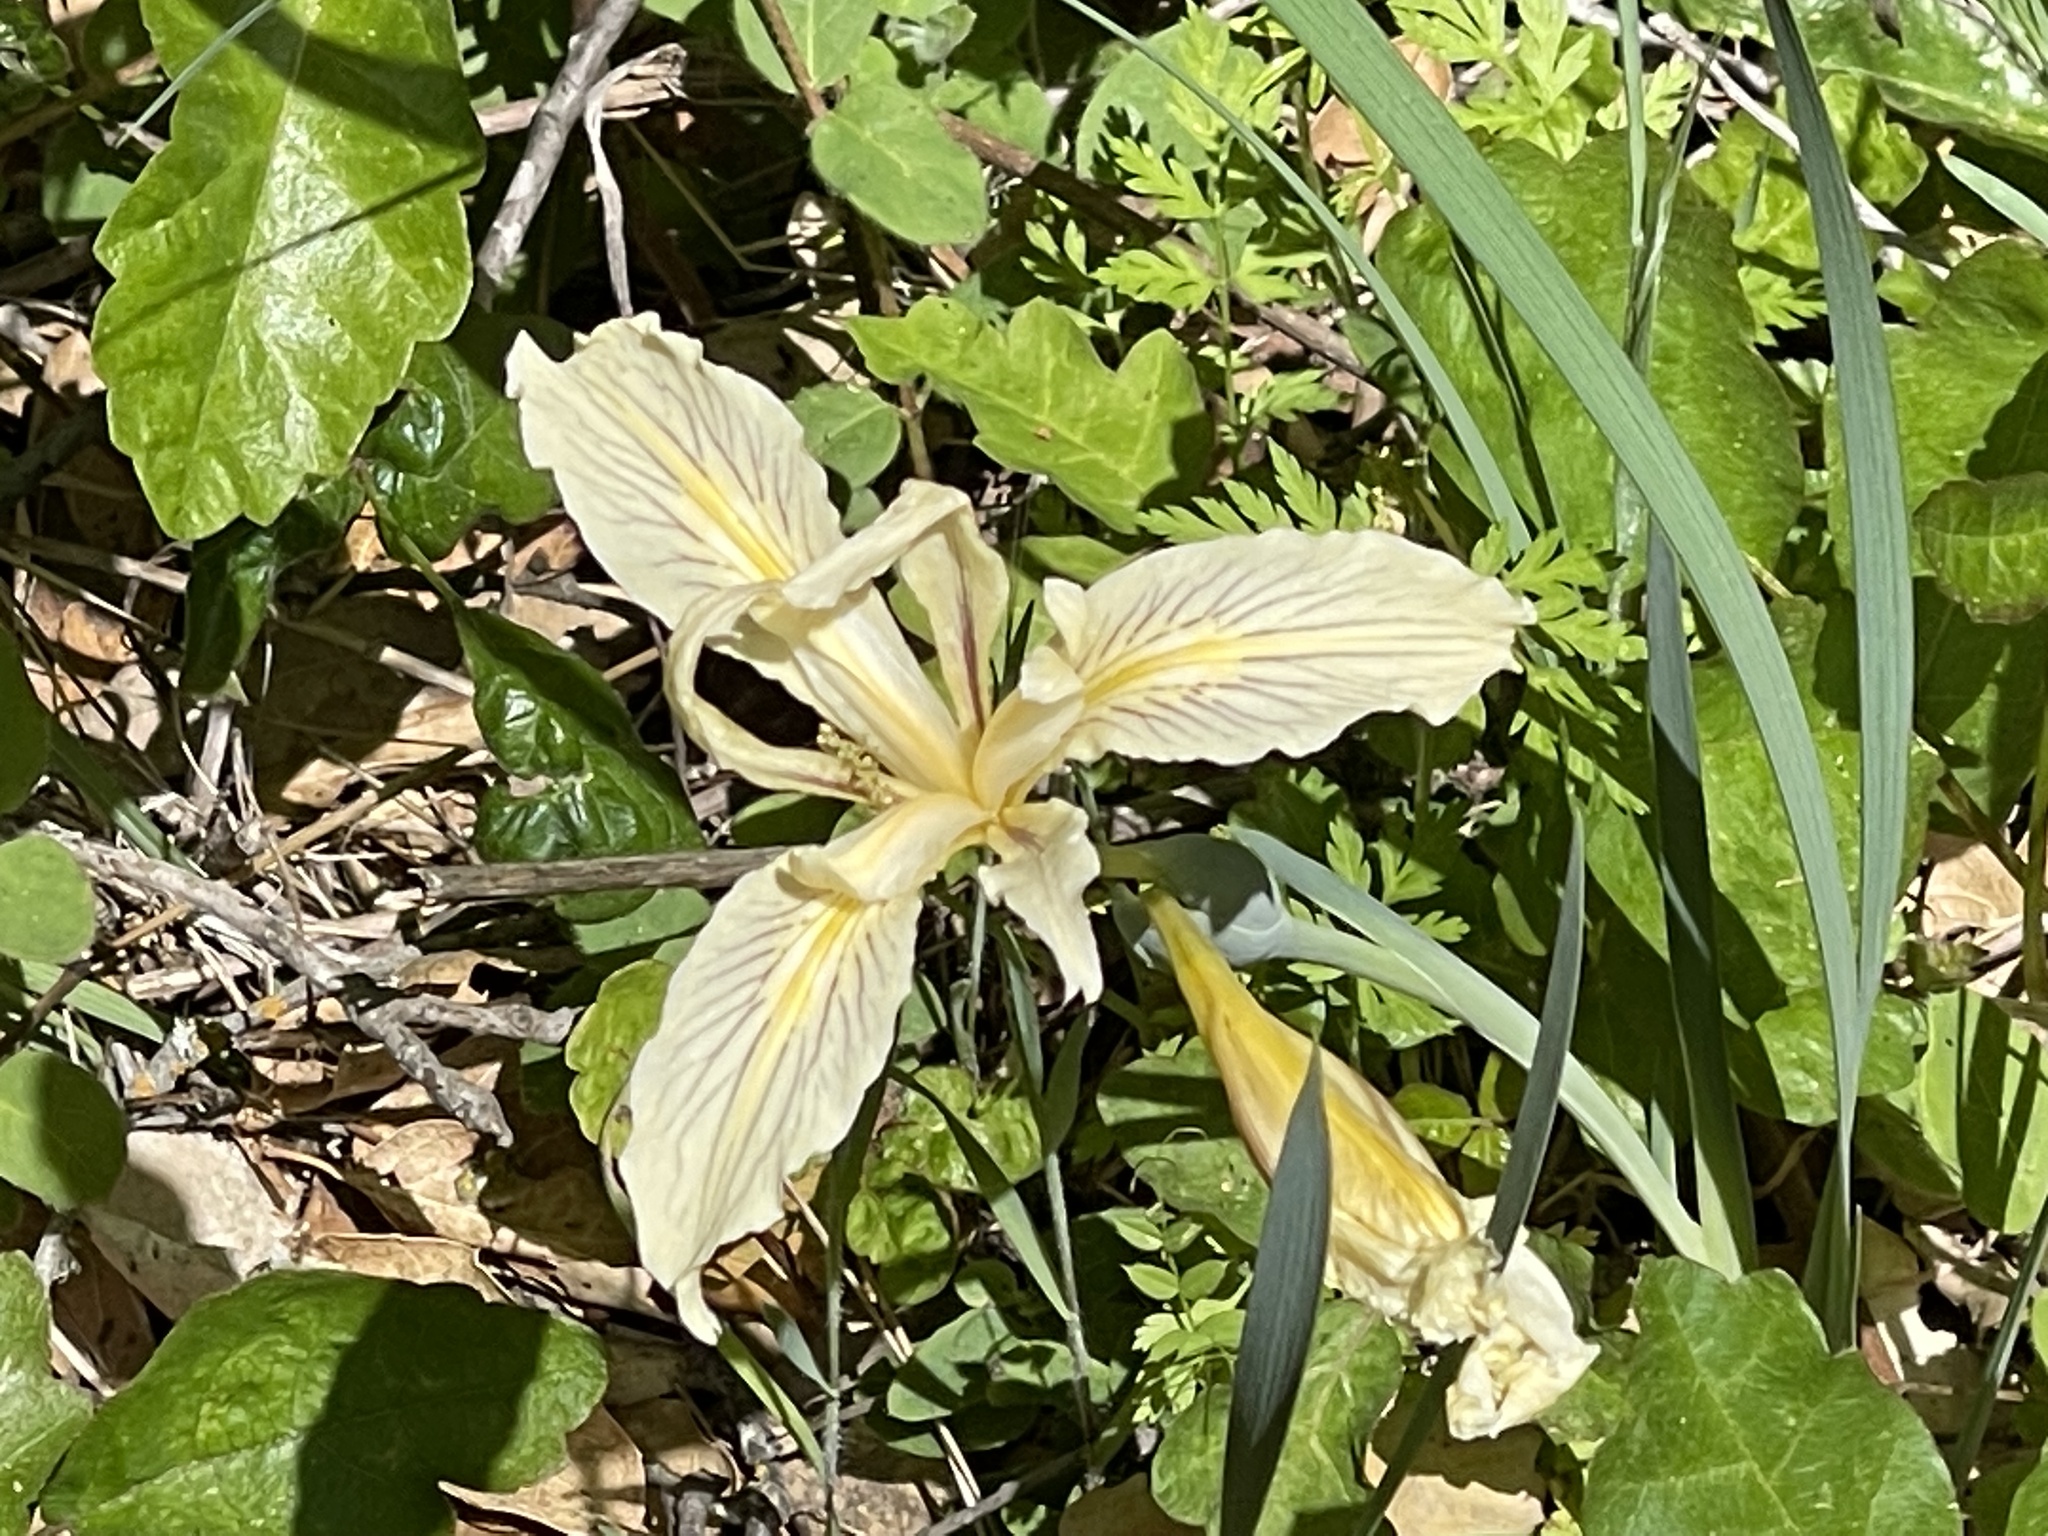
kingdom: Plantae
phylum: Tracheophyta
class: Liliopsida
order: Asparagales
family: Iridaceae
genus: Iris
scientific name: Iris fernaldii
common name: Fernald's iris
